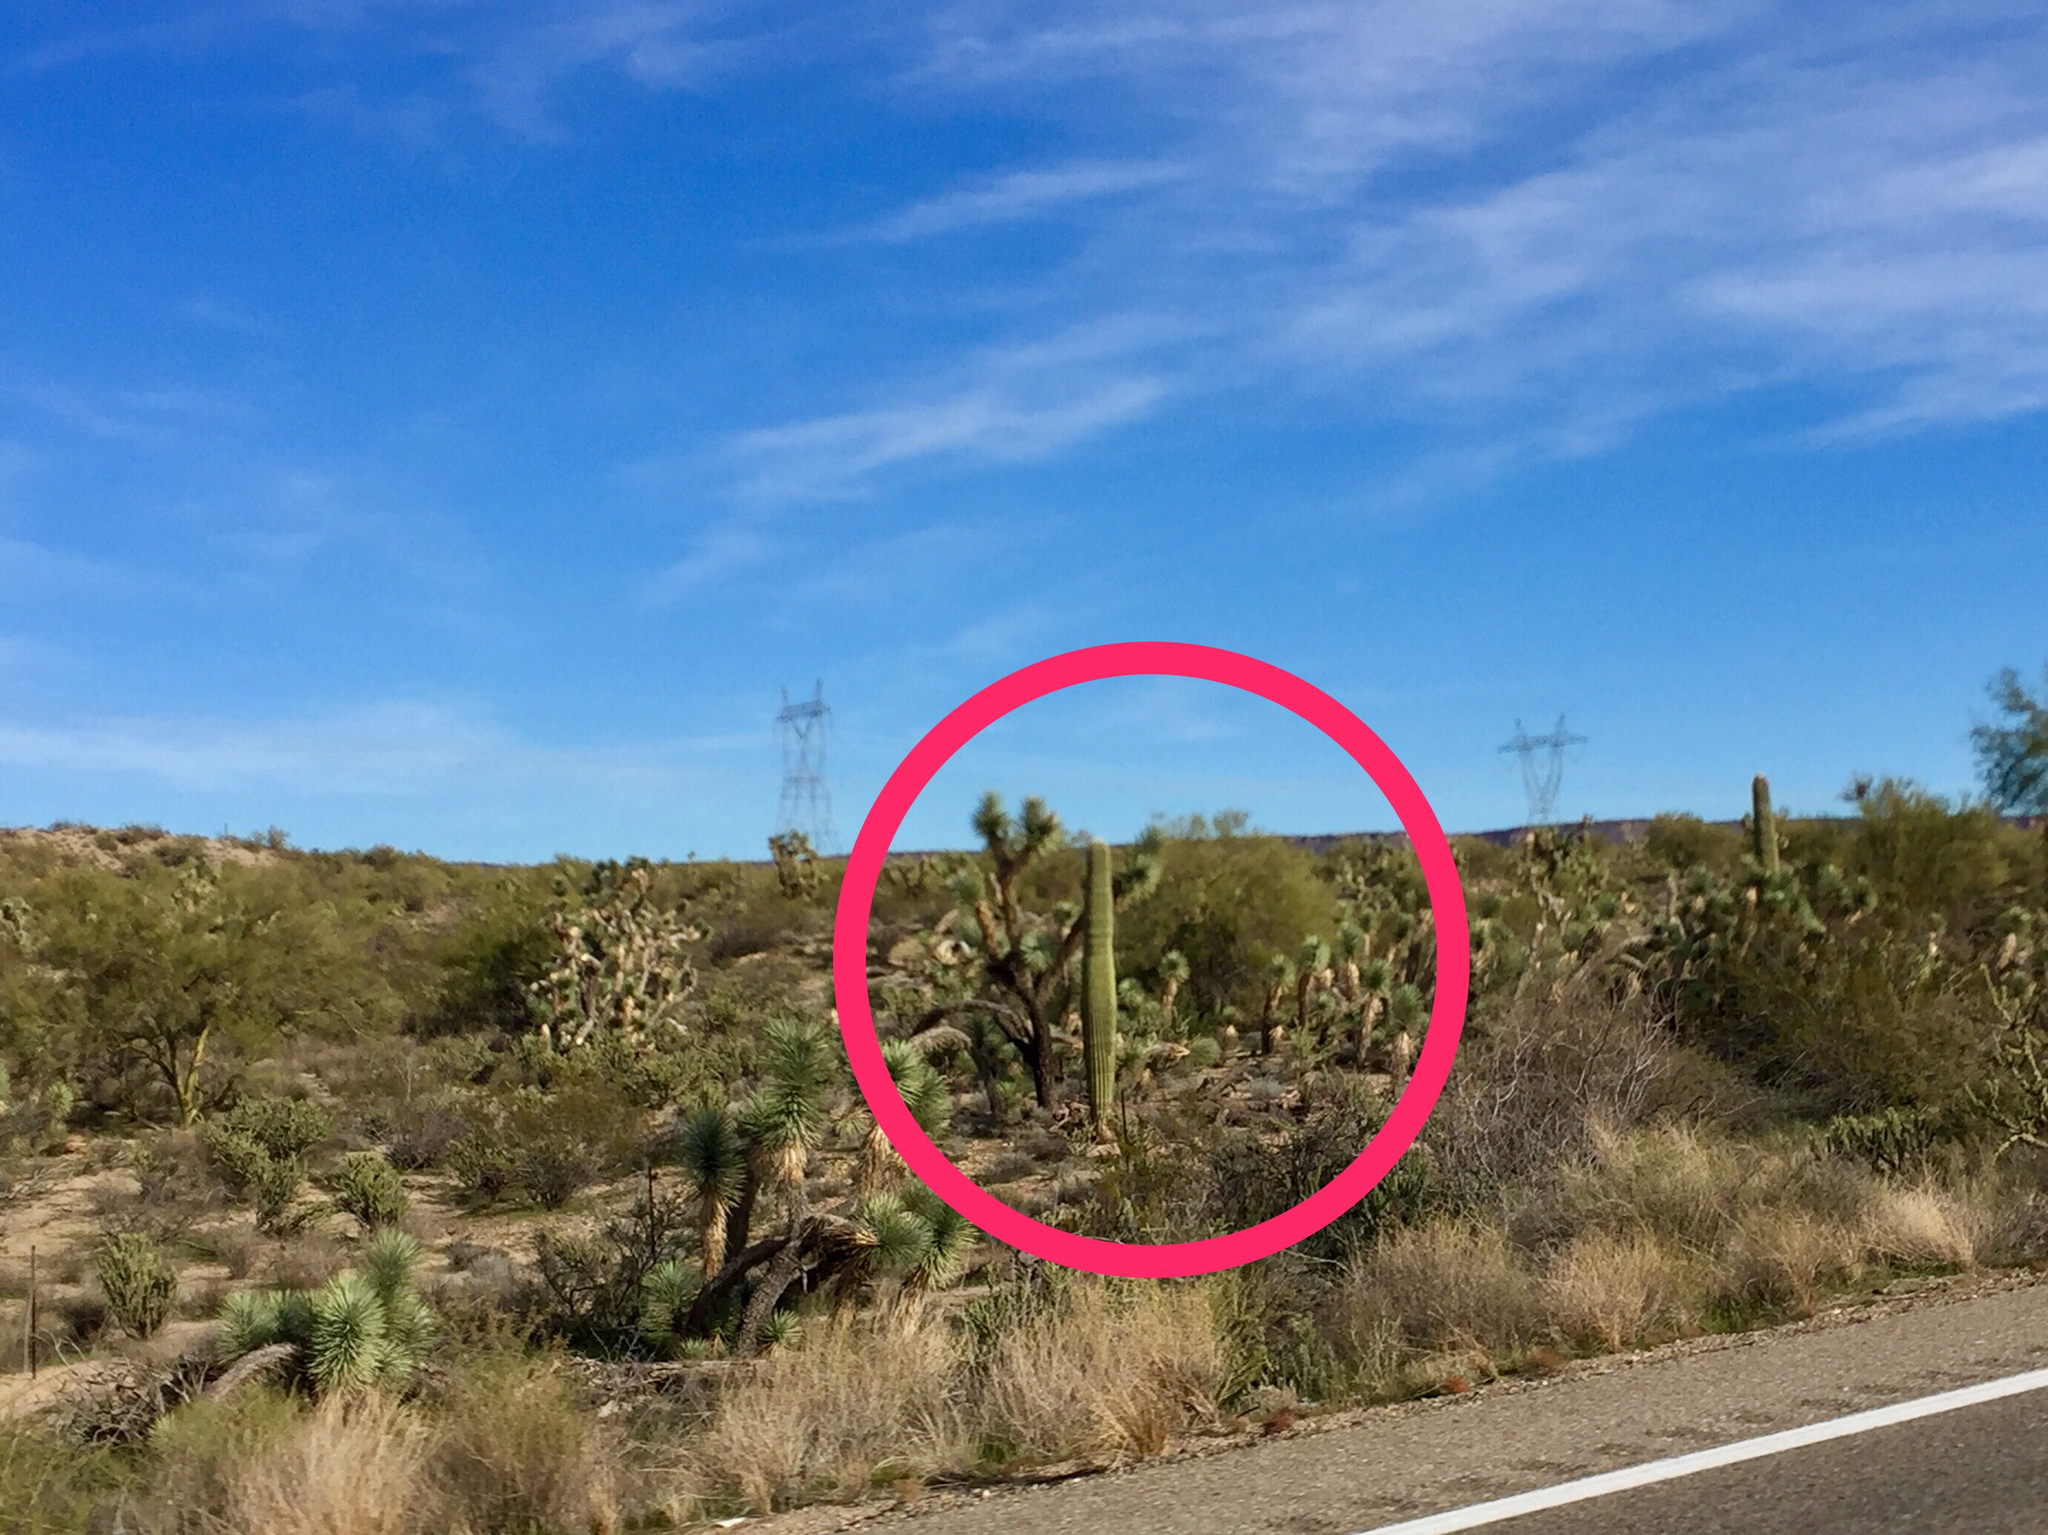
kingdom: Plantae
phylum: Tracheophyta
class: Magnoliopsida
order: Caryophyllales
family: Cactaceae
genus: Carnegiea
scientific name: Carnegiea gigantea
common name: Saguaro
